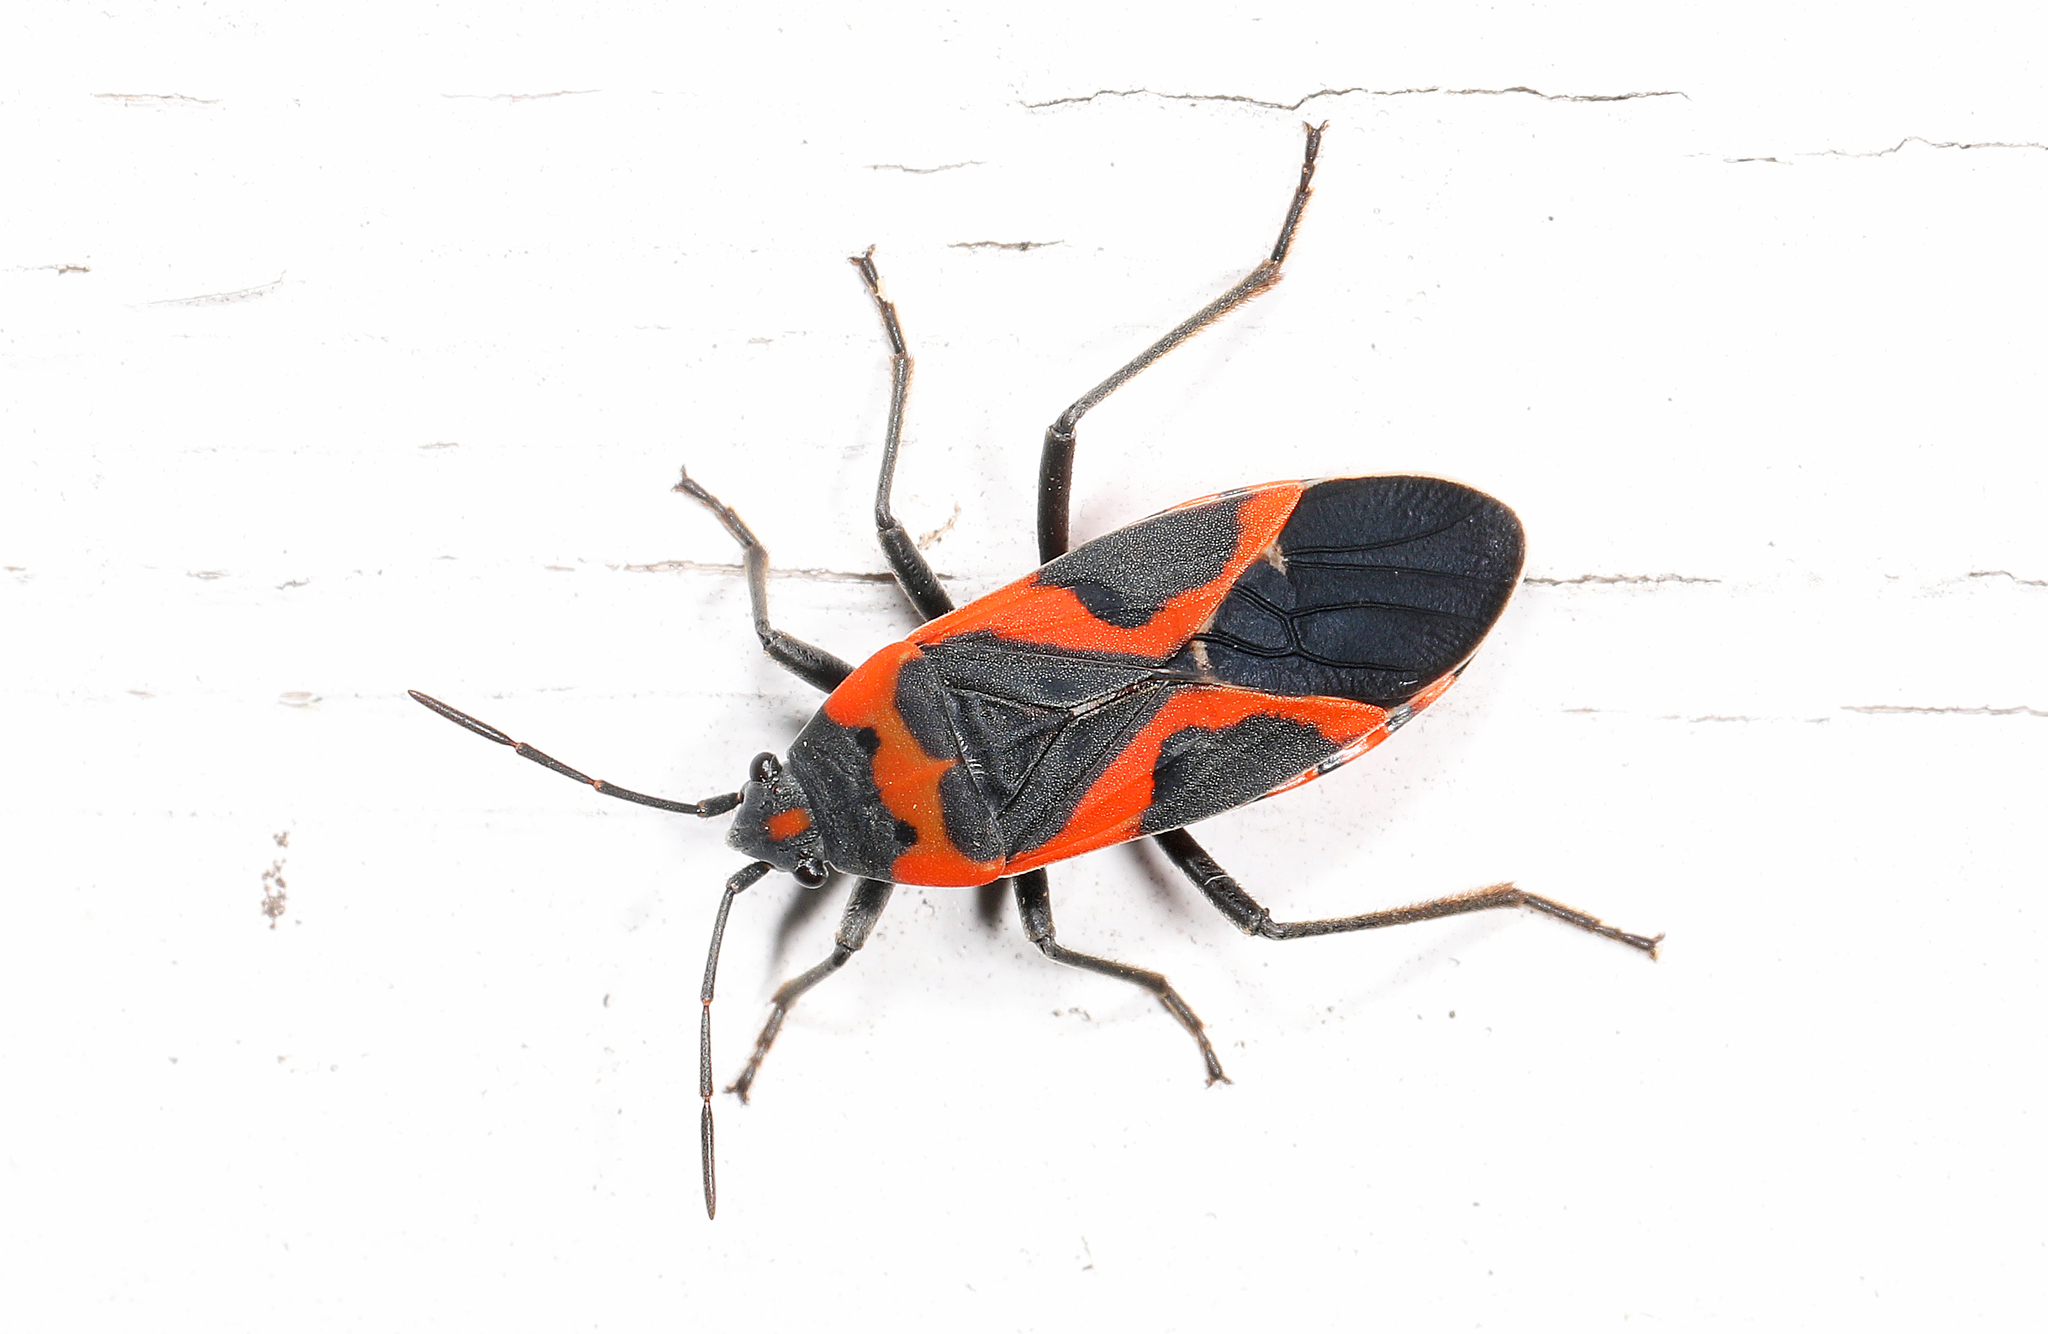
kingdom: Animalia
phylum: Arthropoda
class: Insecta
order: Hemiptera
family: Lygaeidae
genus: Lygaeus
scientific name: Lygaeus kalmii
